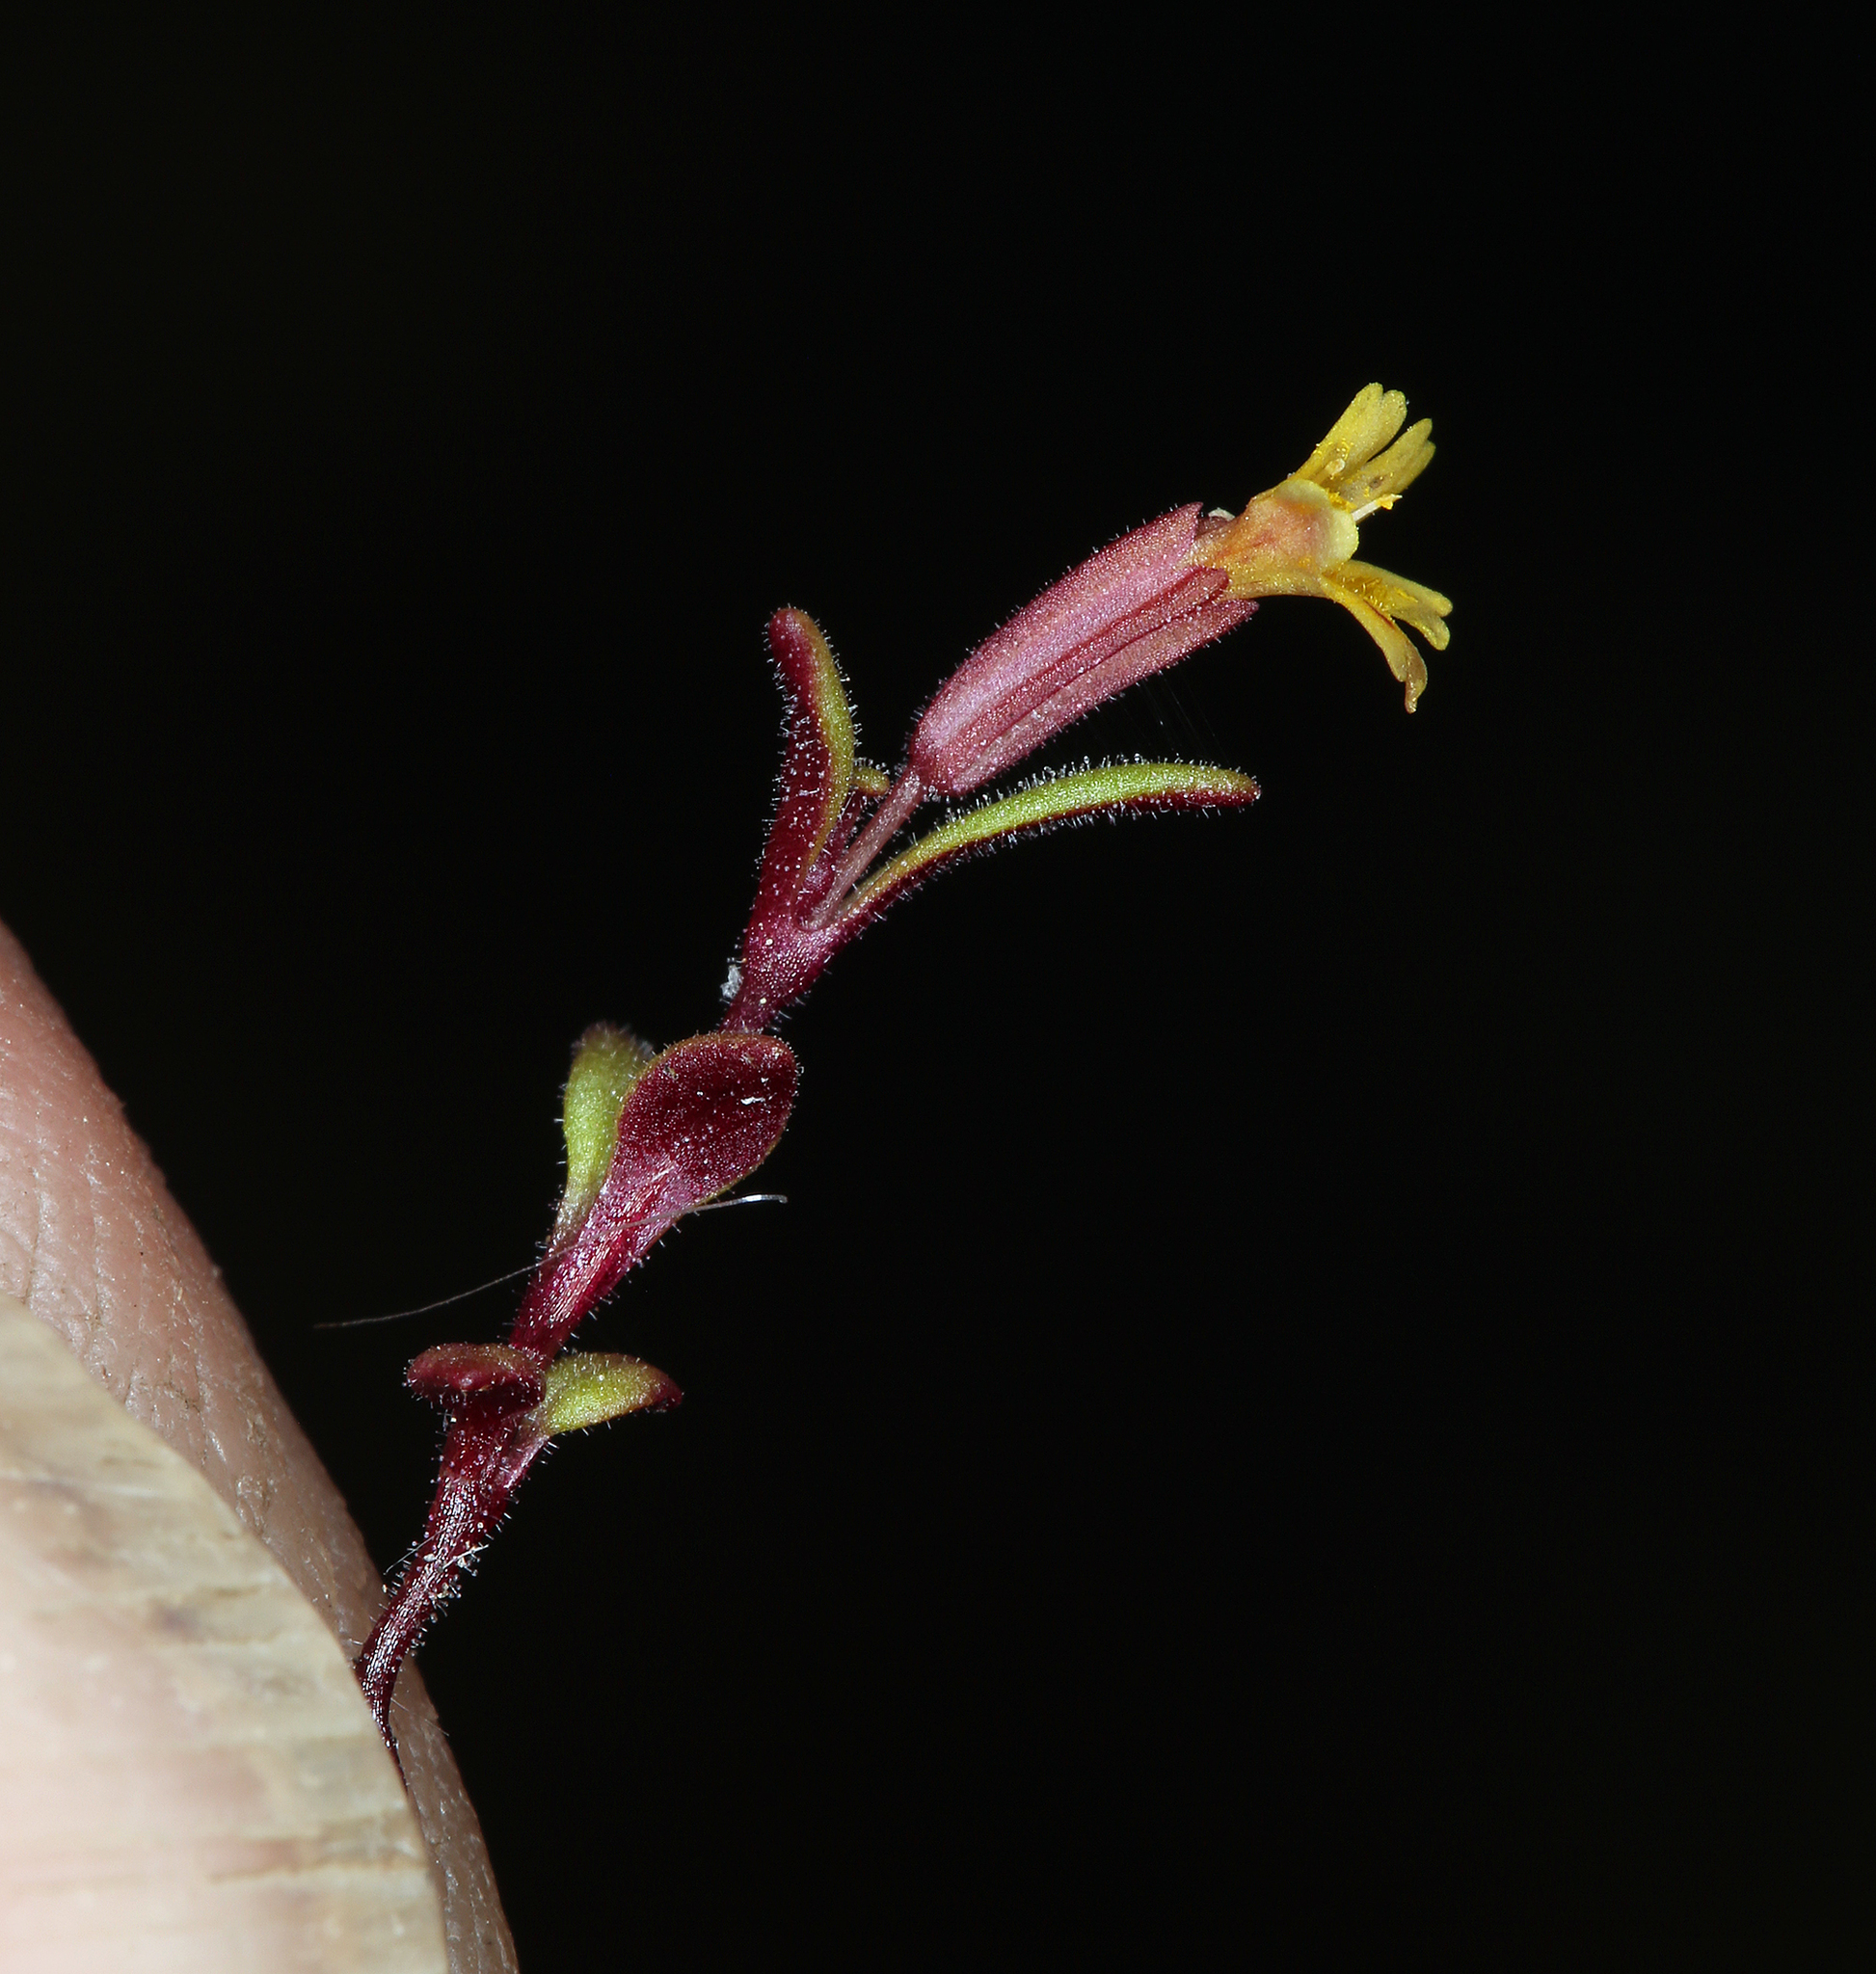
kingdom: Plantae
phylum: Tracheophyta
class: Magnoliopsida
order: Lamiales
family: Phrymaceae
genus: Erythranthe
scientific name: Erythranthe rubella
